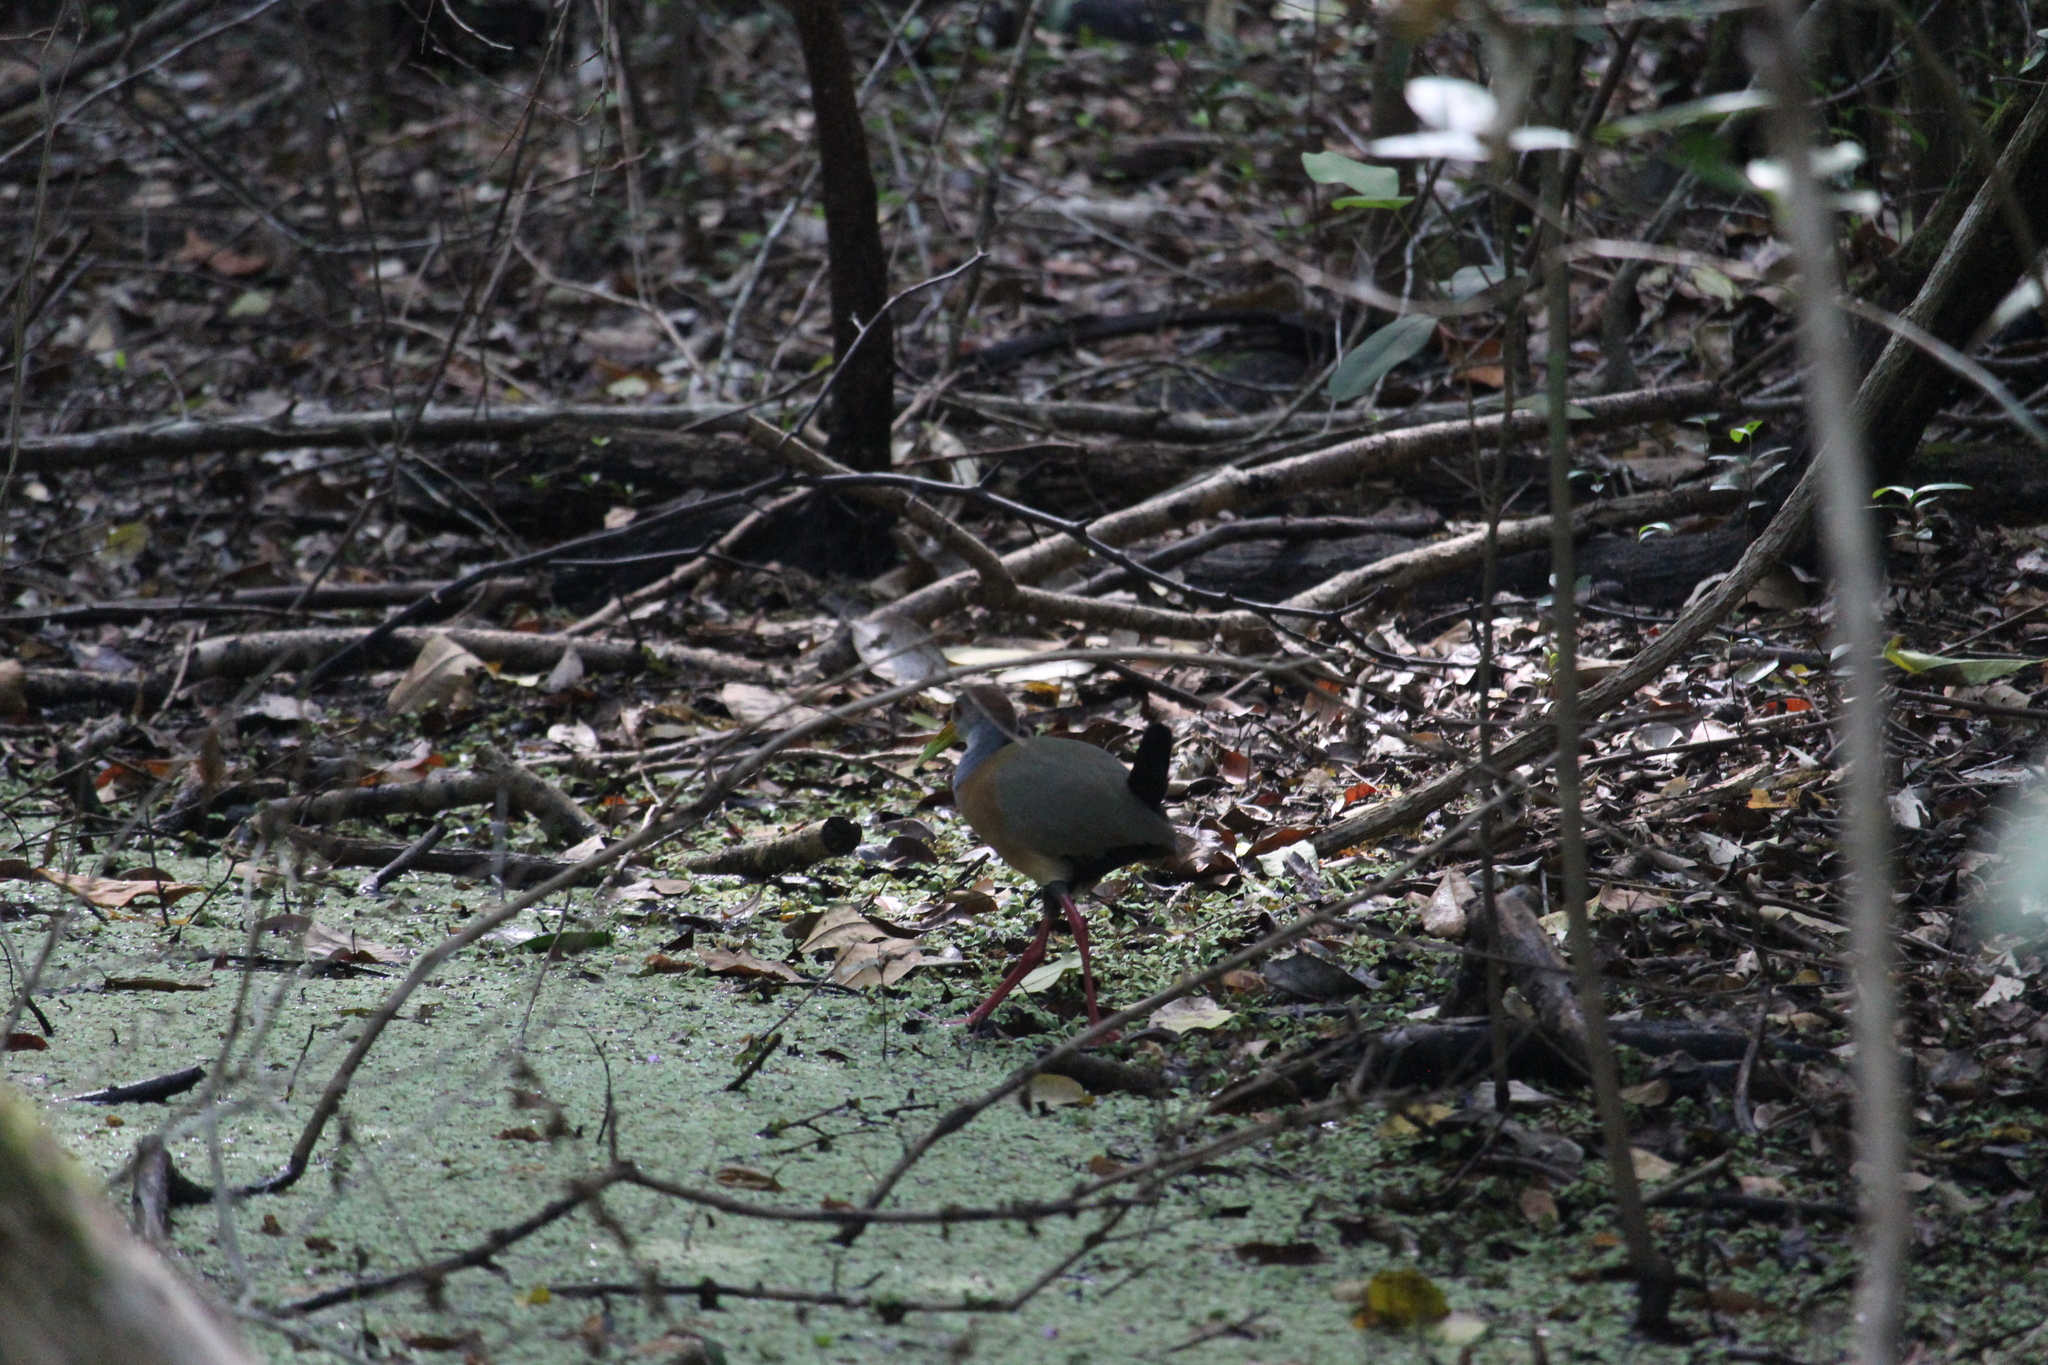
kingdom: Animalia
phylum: Chordata
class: Aves
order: Gruiformes
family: Rallidae
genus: Aramides
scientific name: Aramides albiventris
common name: Russet-naped wood-rail
